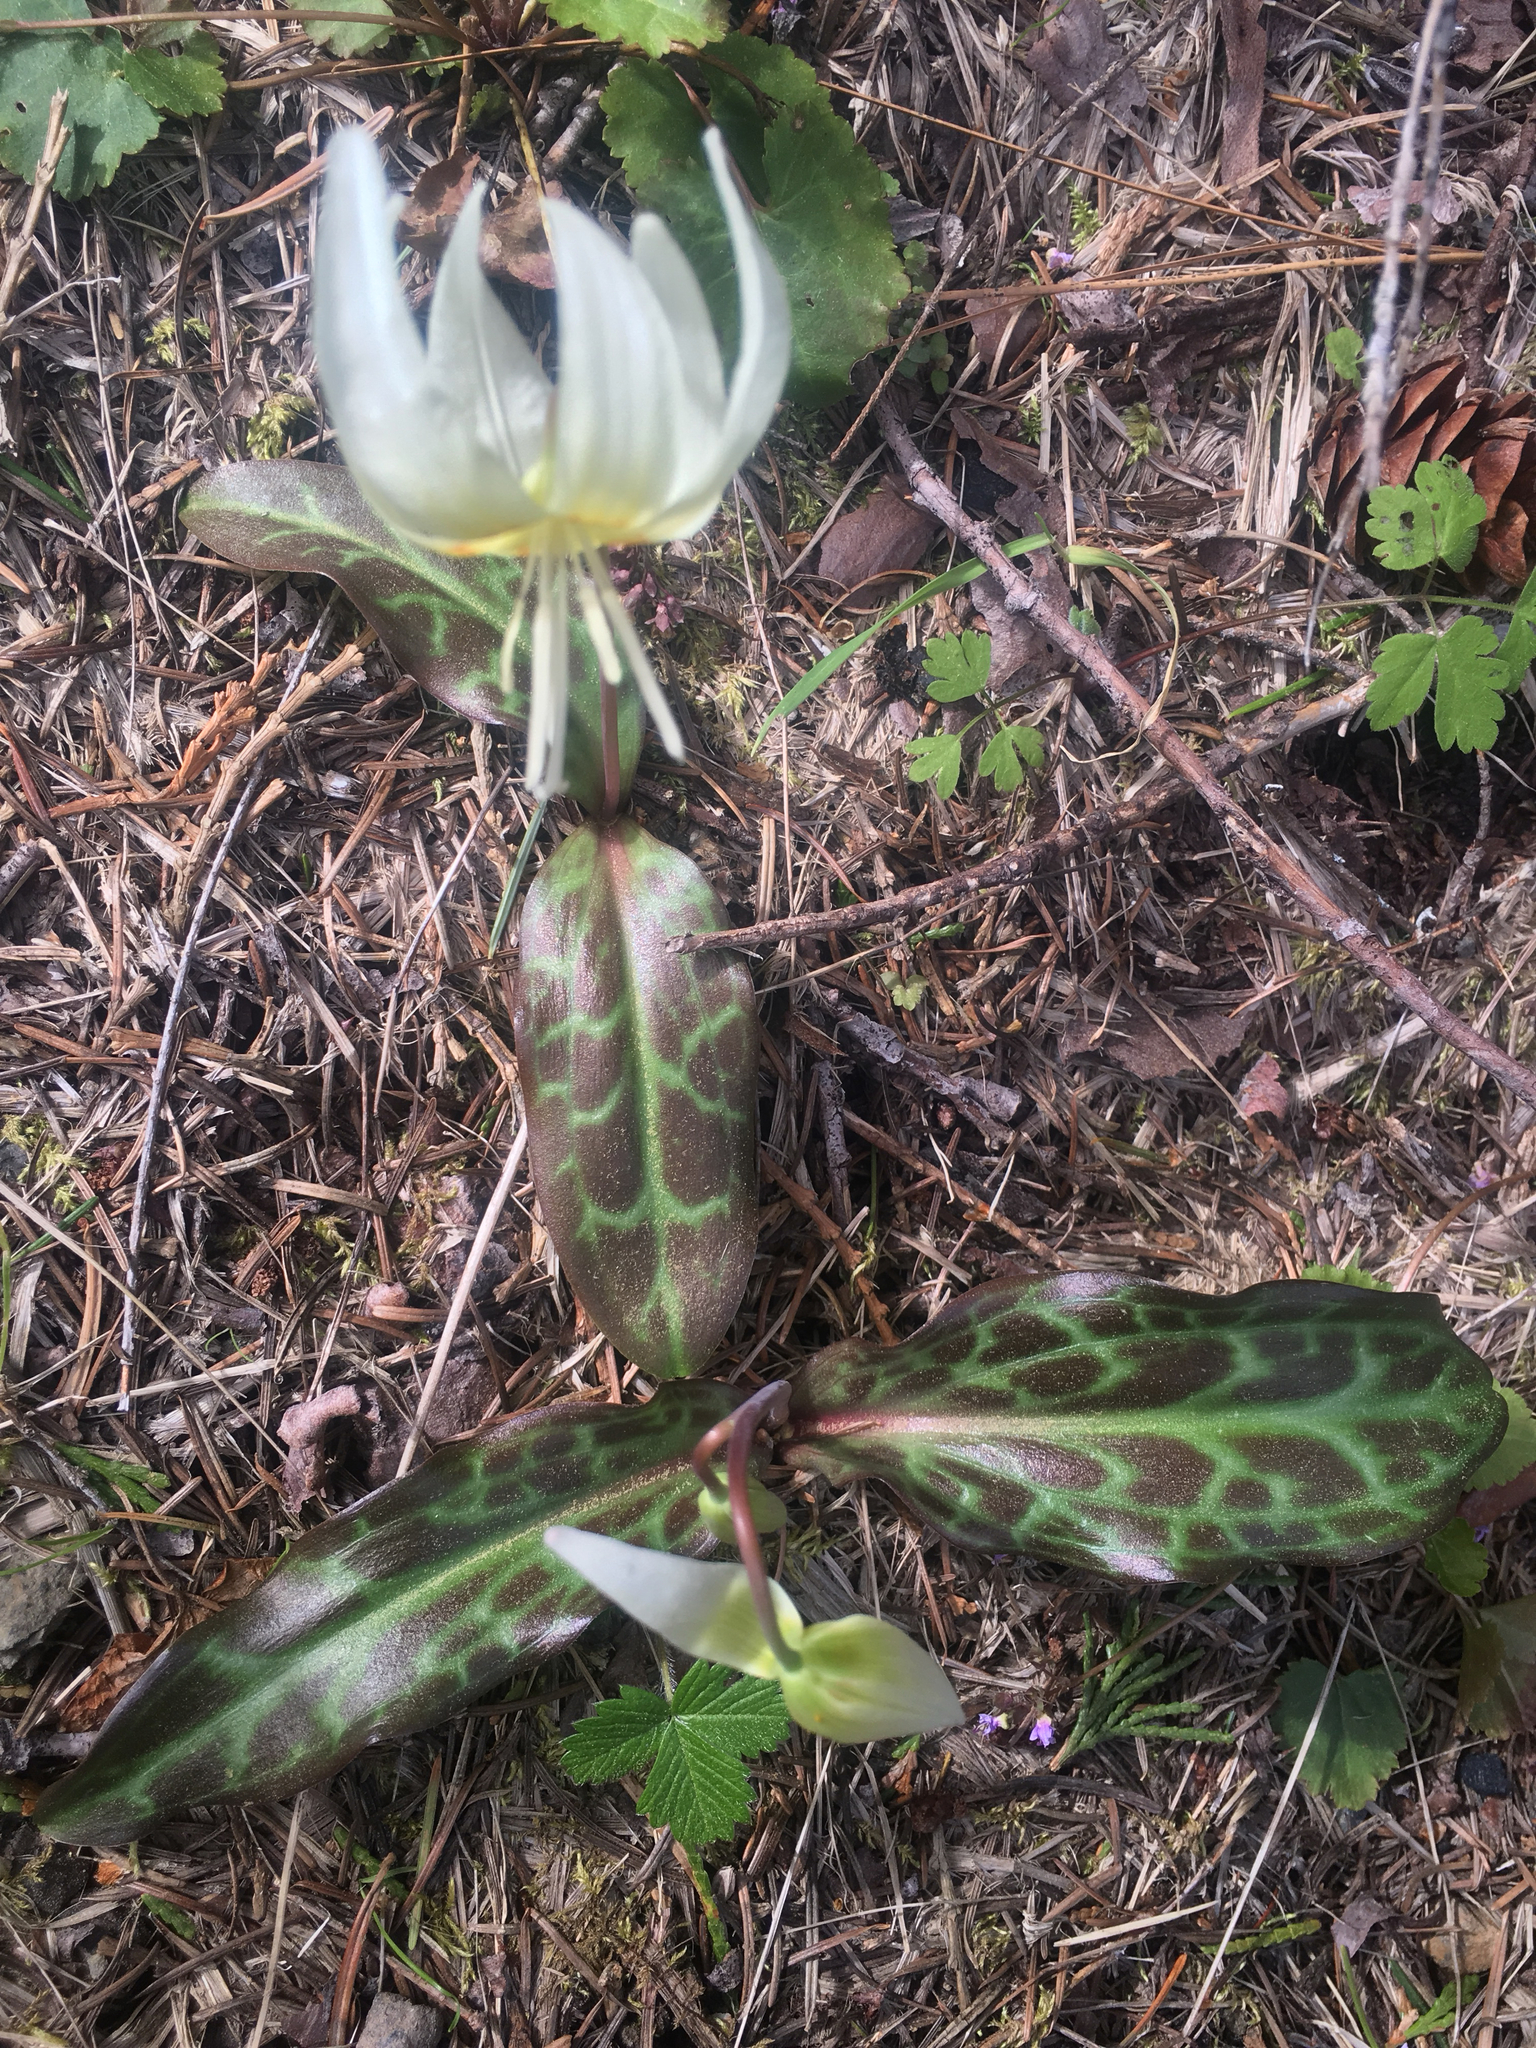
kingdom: Plantae
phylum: Tracheophyta
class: Liliopsida
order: Liliales
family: Liliaceae
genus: Erythronium
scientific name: Erythronium californicum
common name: Fawn-lily
